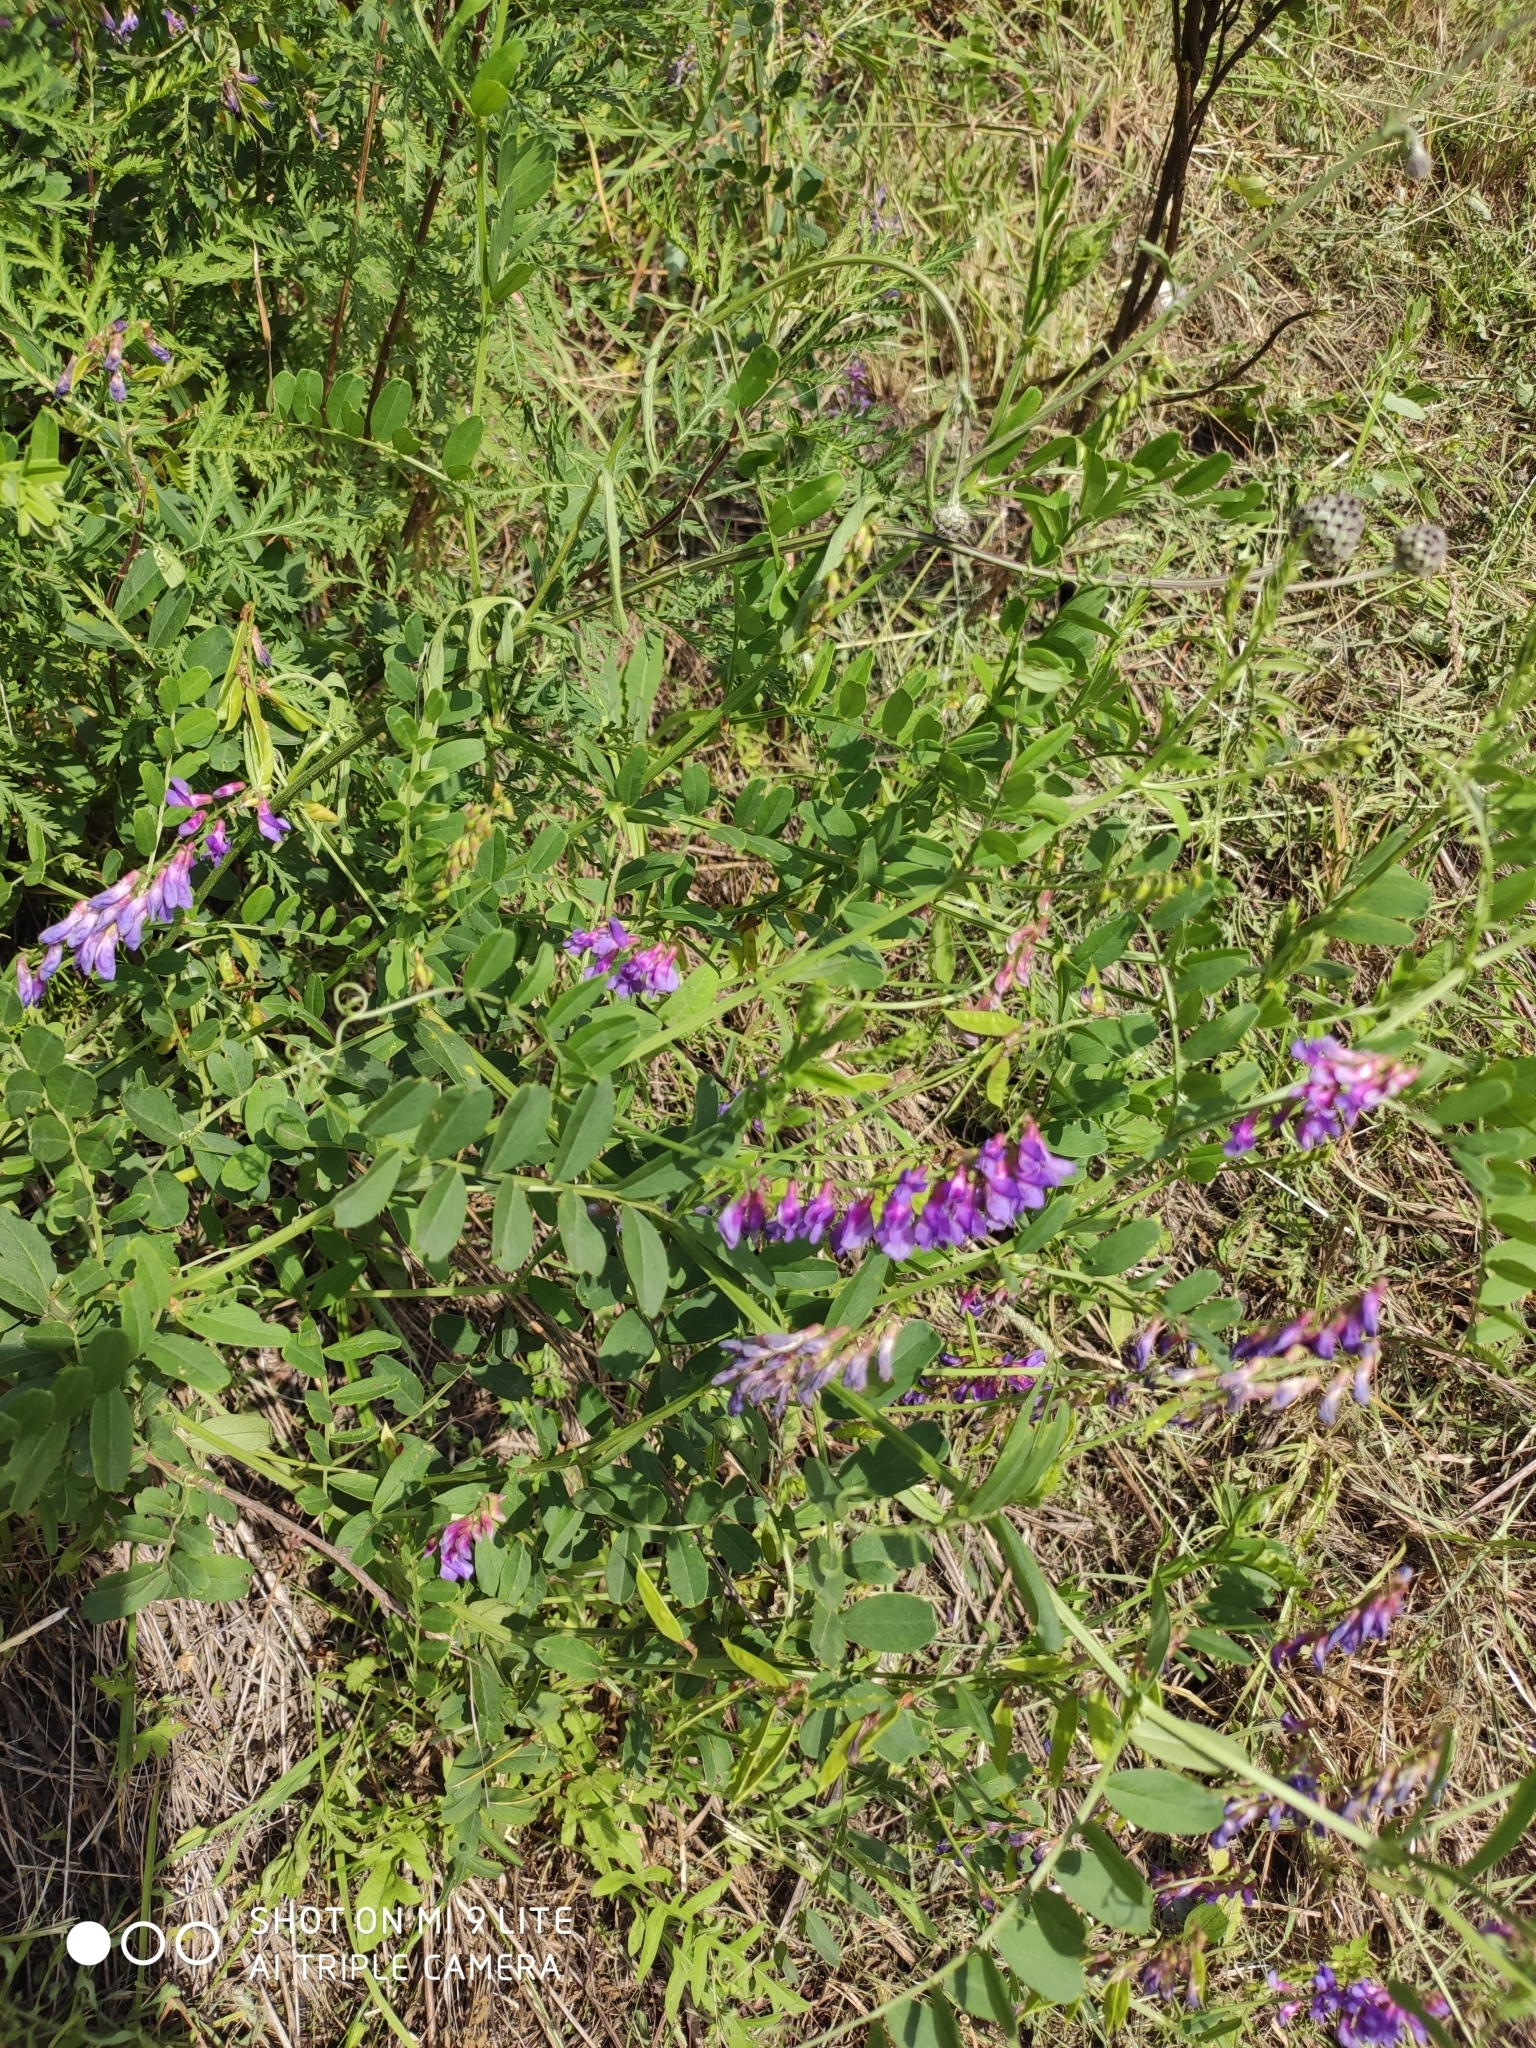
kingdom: Plantae
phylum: Tracheophyta
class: Magnoliopsida
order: Fabales
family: Fabaceae
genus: Vicia
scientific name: Vicia amoena
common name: Cheder ebs
